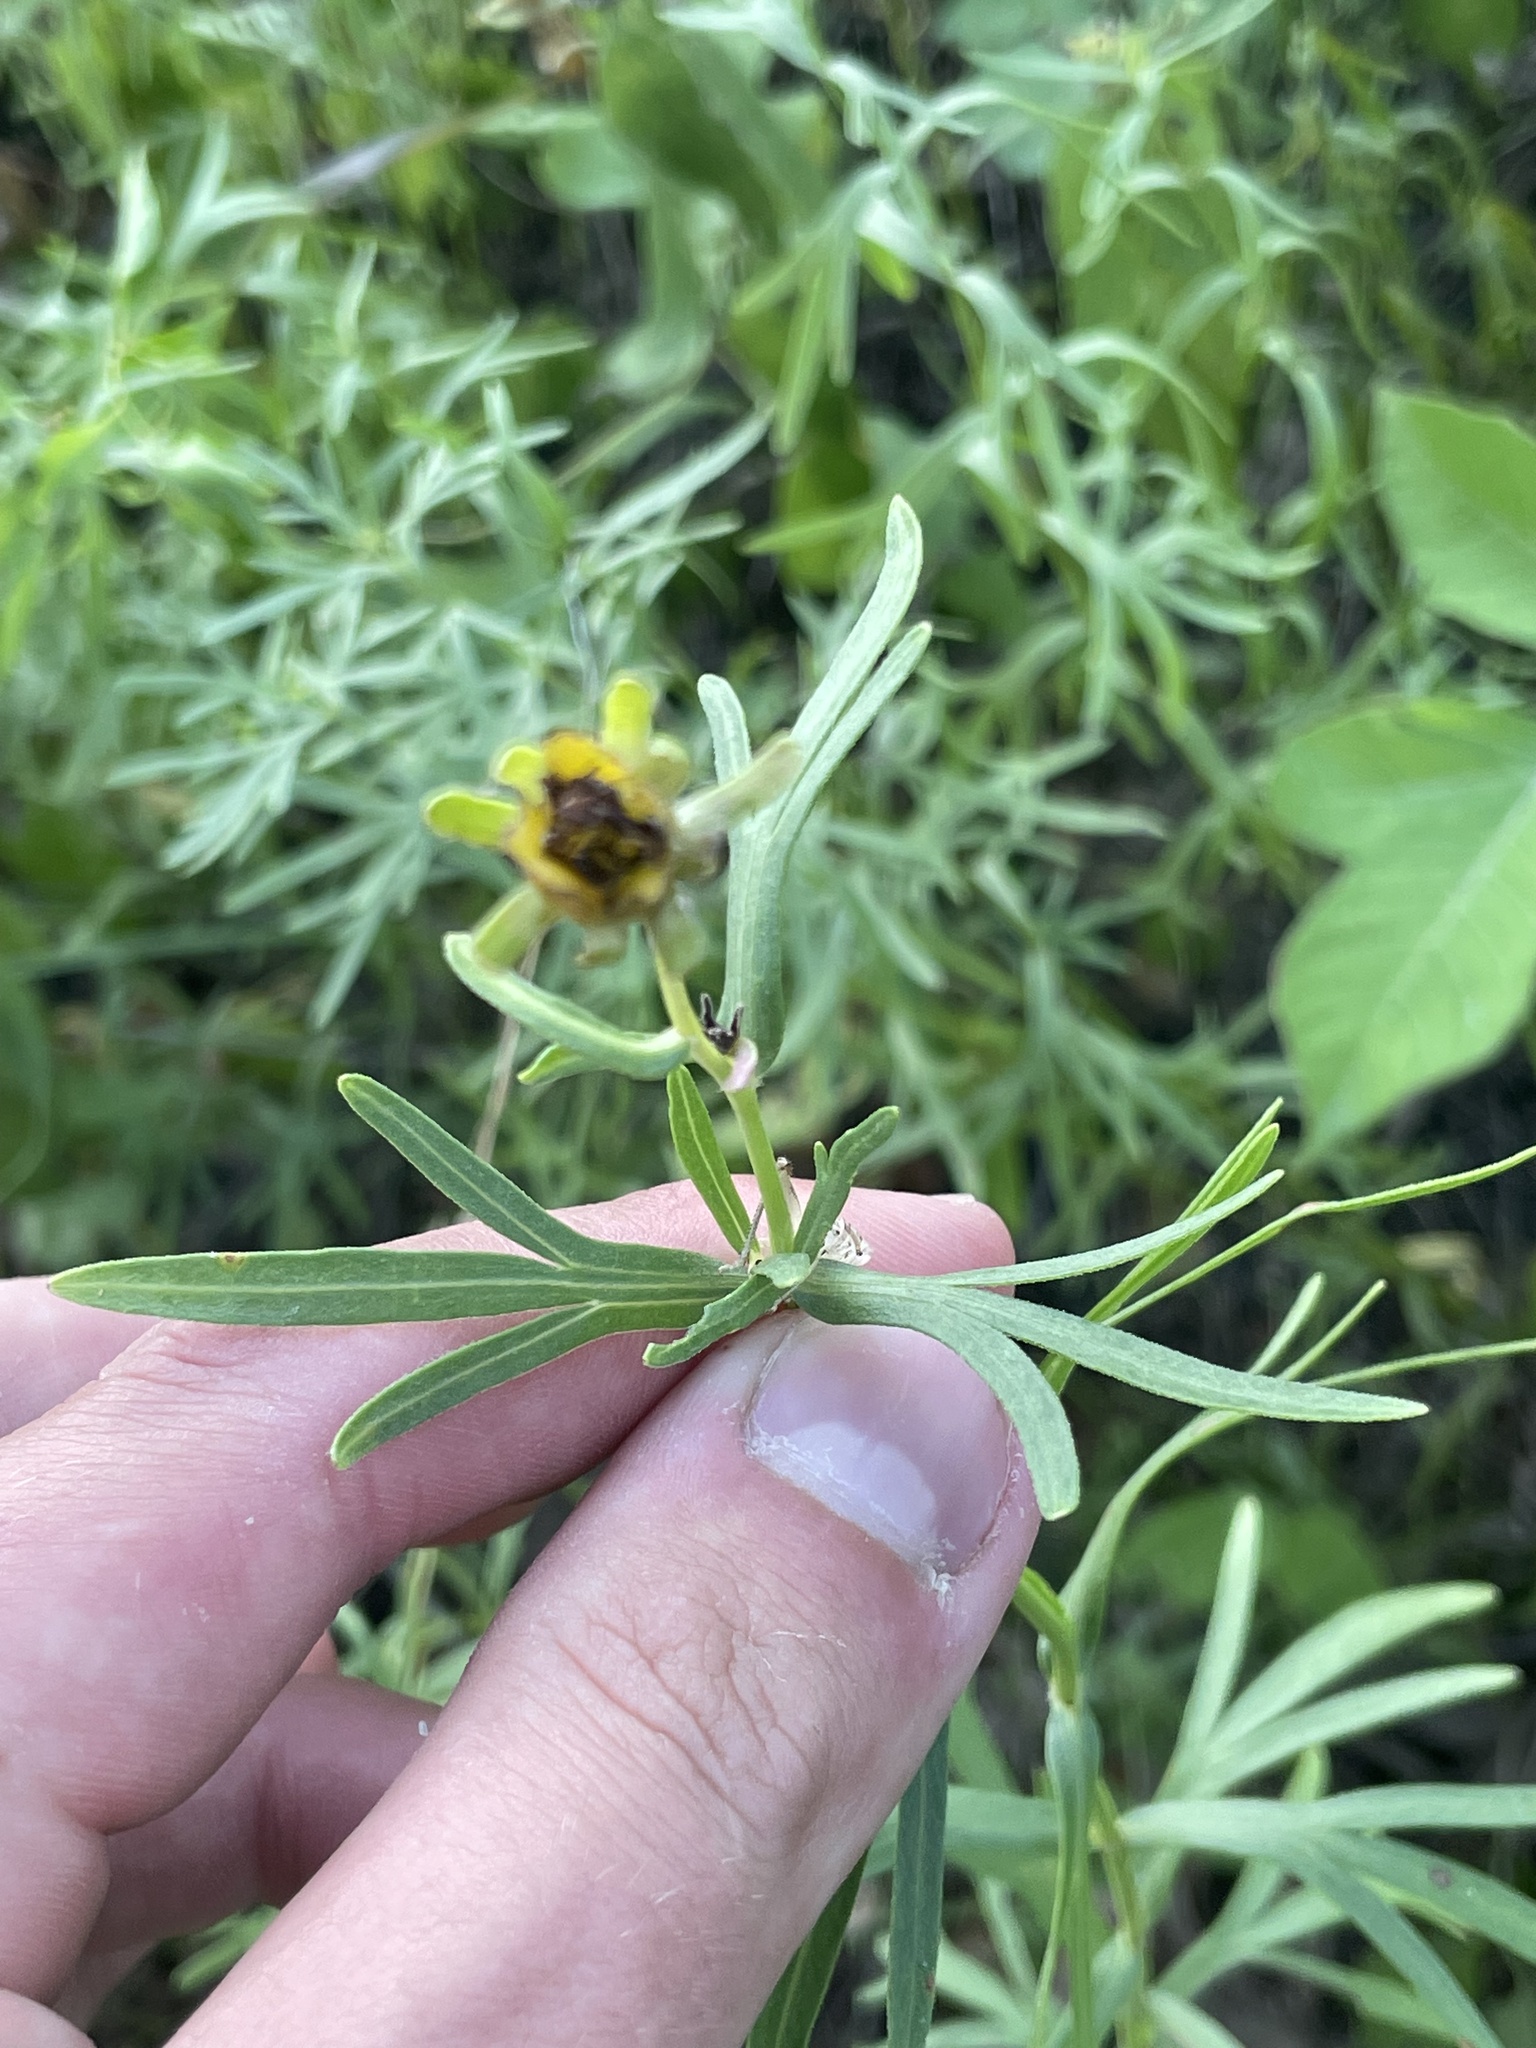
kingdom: Plantae
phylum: Tracheophyta
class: Magnoliopsida
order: Asterales
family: Asteraceae
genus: Coreopsis
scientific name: Coreopsis palmata
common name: Prairie coreopsis
